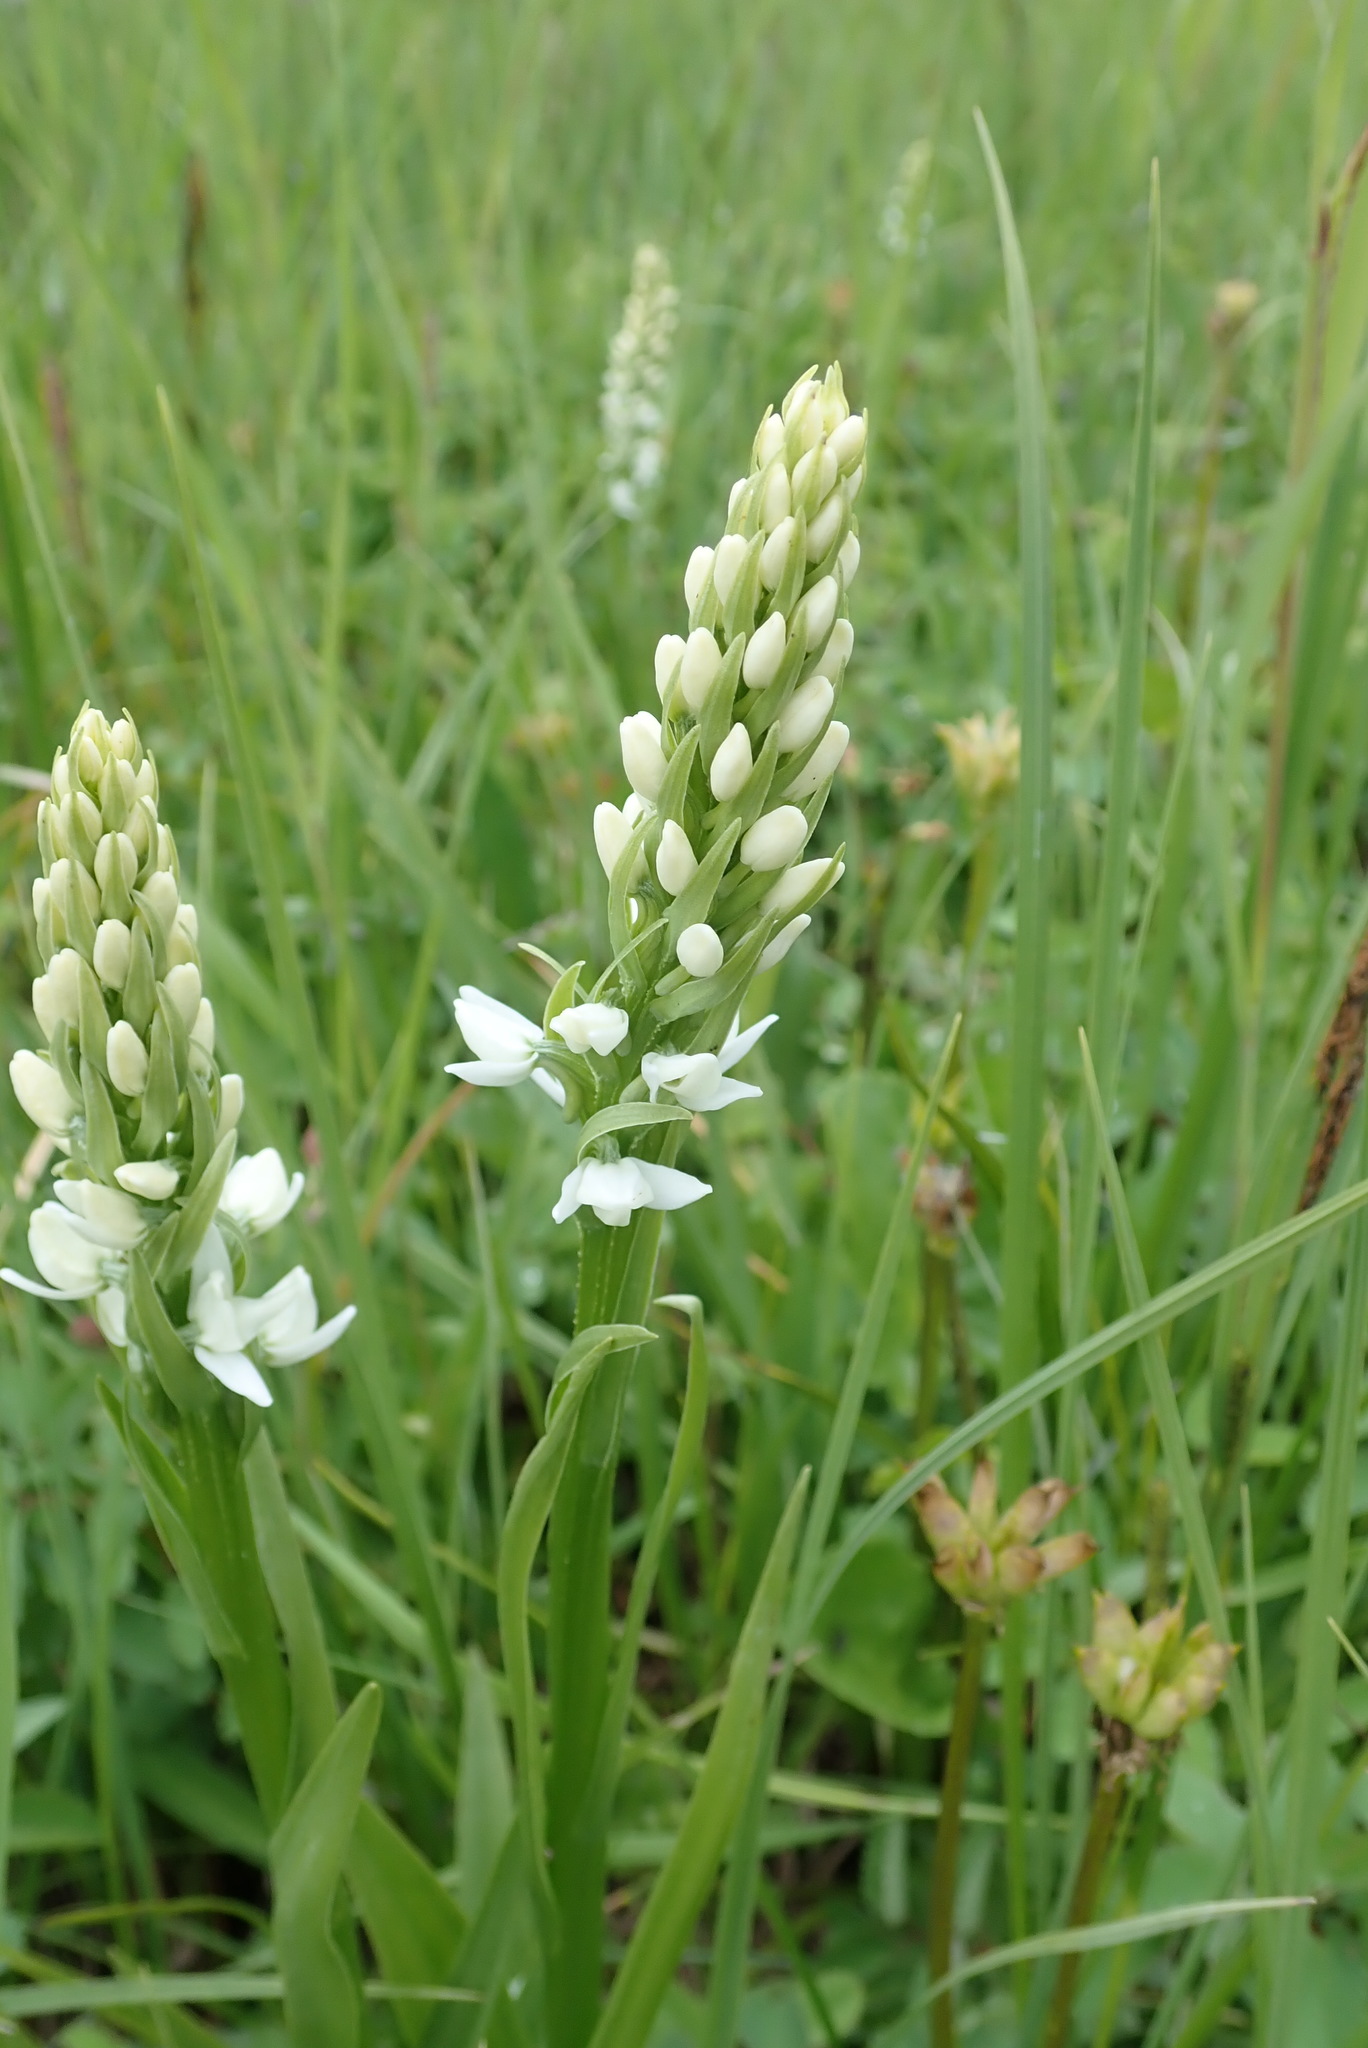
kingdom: Plantae
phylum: Tracheophyta
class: Liliopsida
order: Asparagales
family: Orchidaceae
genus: Platanthera
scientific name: Platanthera dilatata
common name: Bog candles
